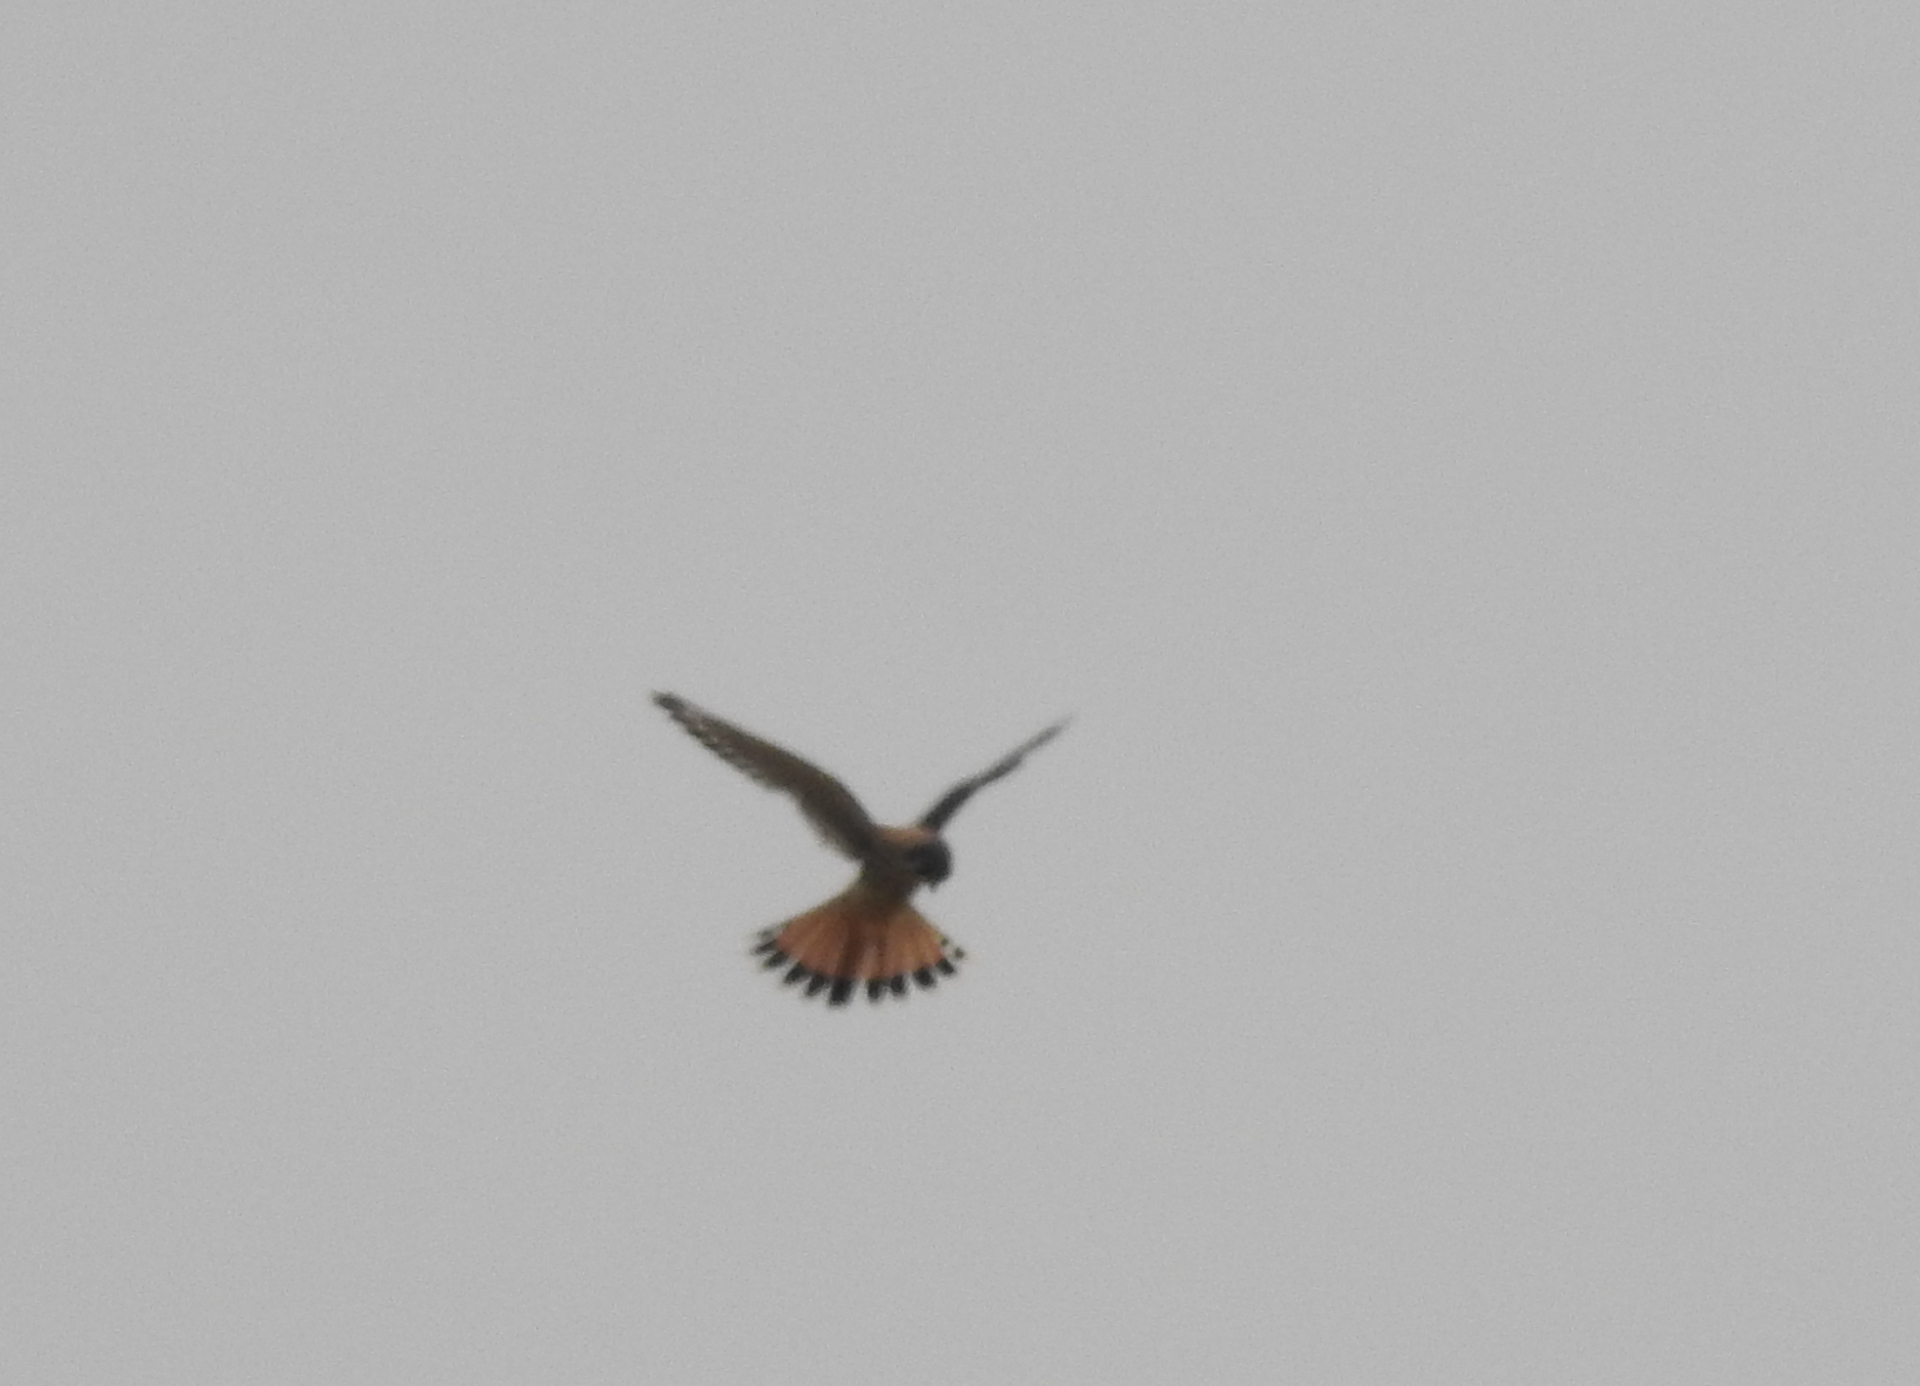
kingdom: Animalia
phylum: Chordata
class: Aves
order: Falconiformes
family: Falconidae
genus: Falco
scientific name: Falco sparverius
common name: American kestrel
